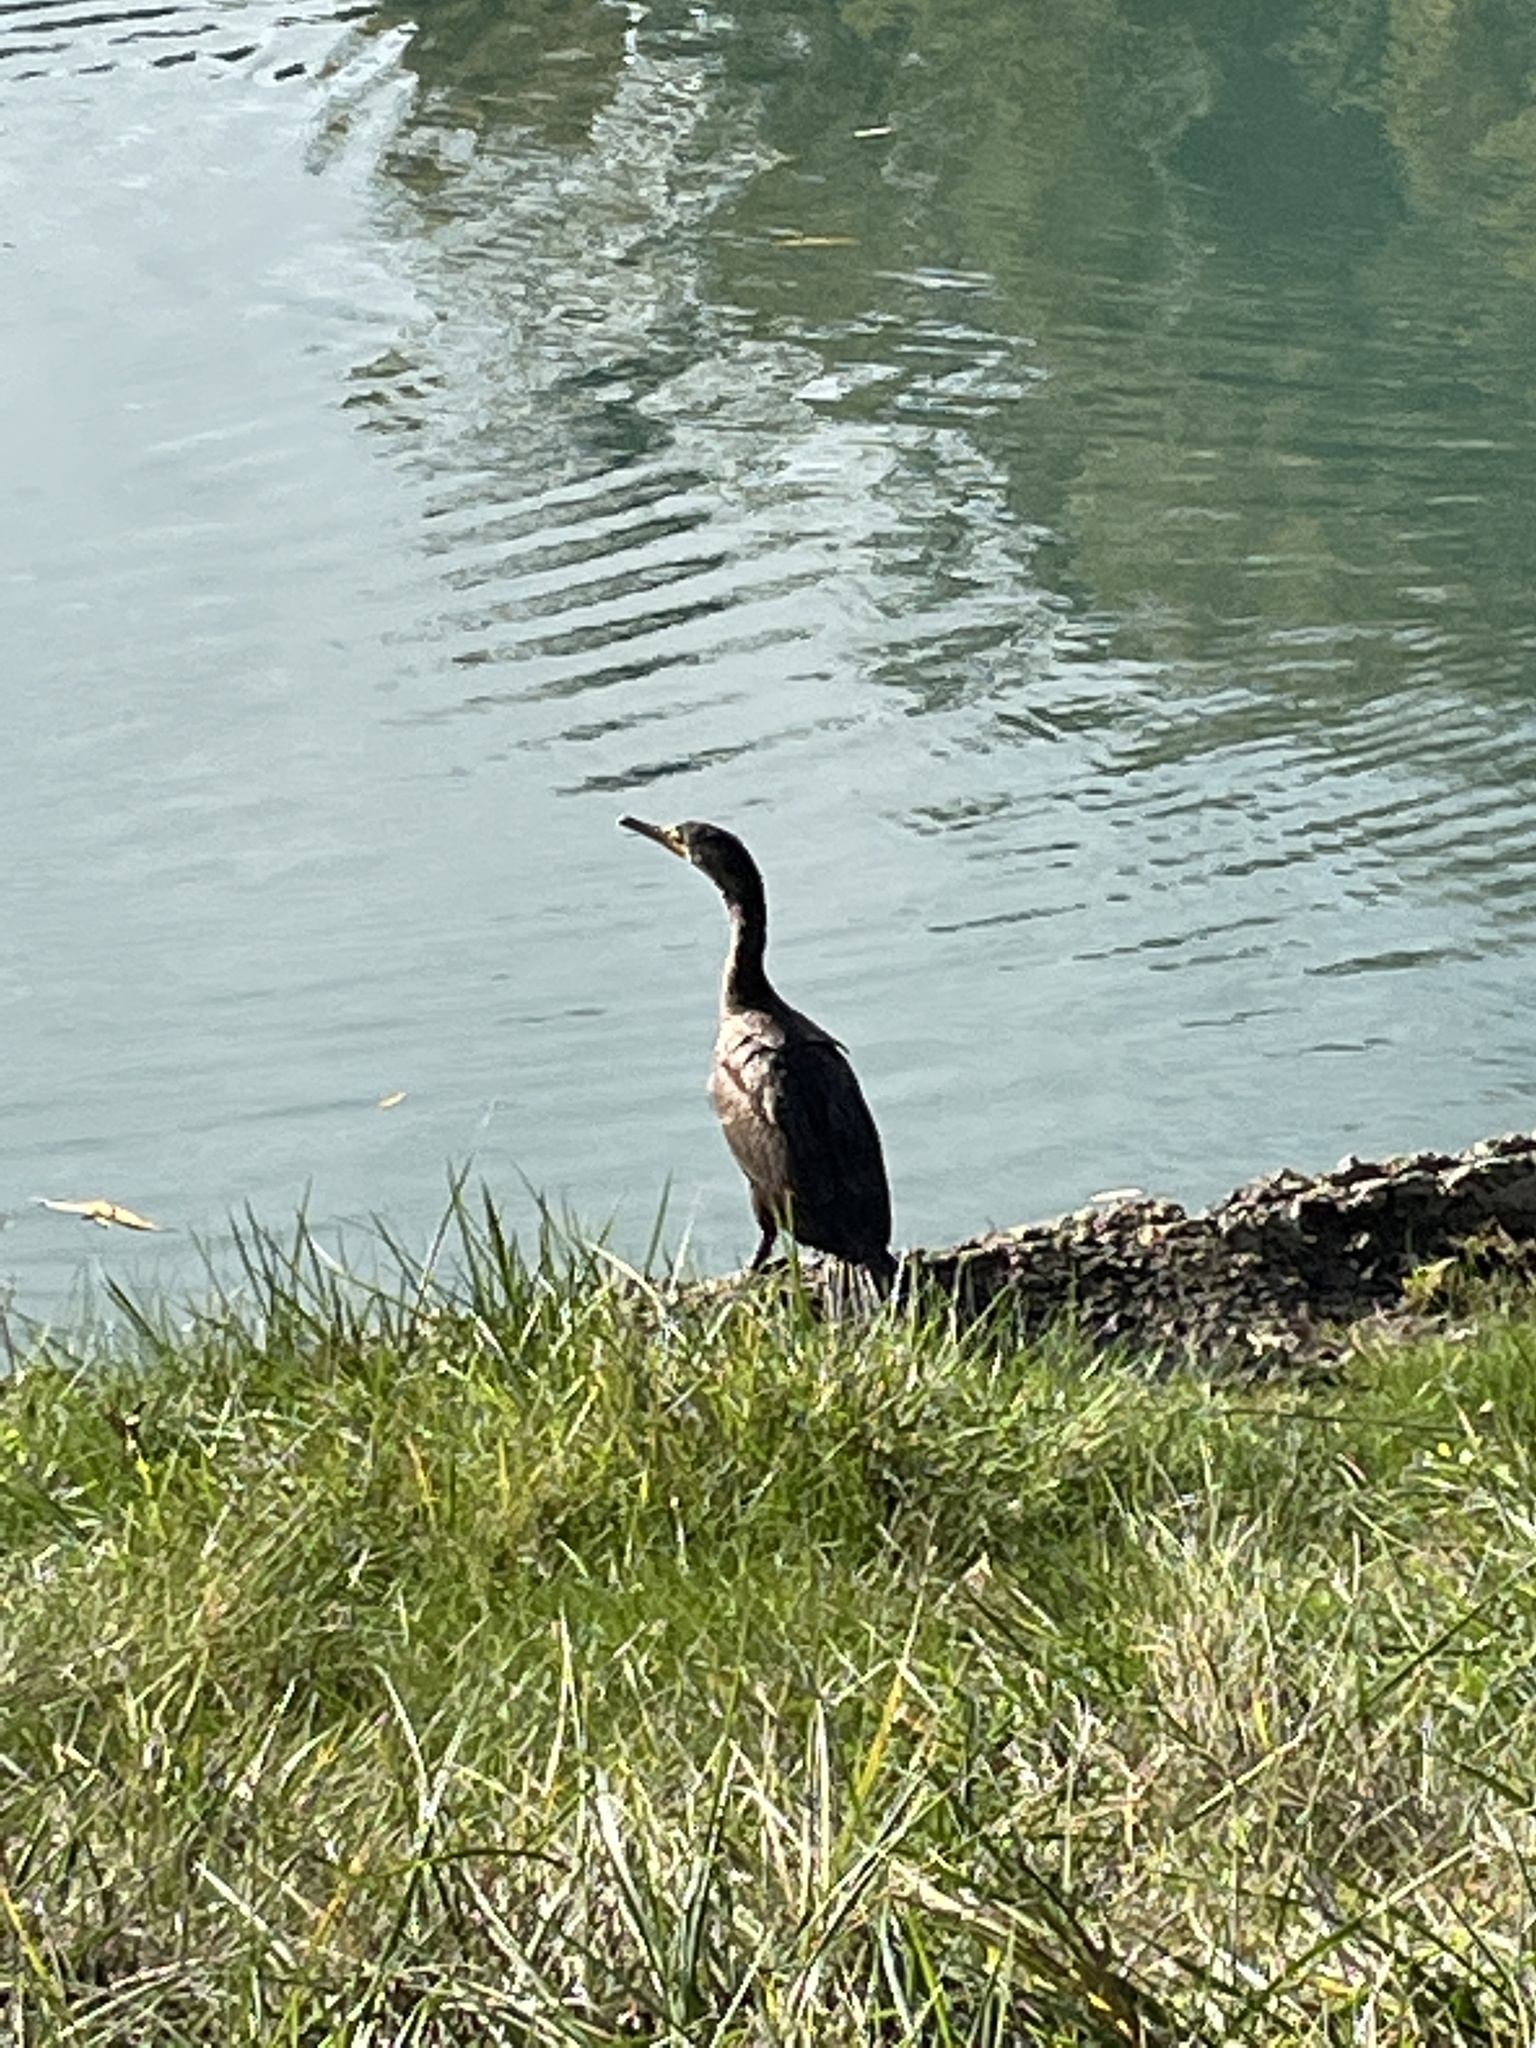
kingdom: Animalia
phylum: Chordata
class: Aves
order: Suliformes
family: Phalacrocoracidae
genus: Phalacrocorax
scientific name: Phalacrocorax auritus
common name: Double-crested cormorant
